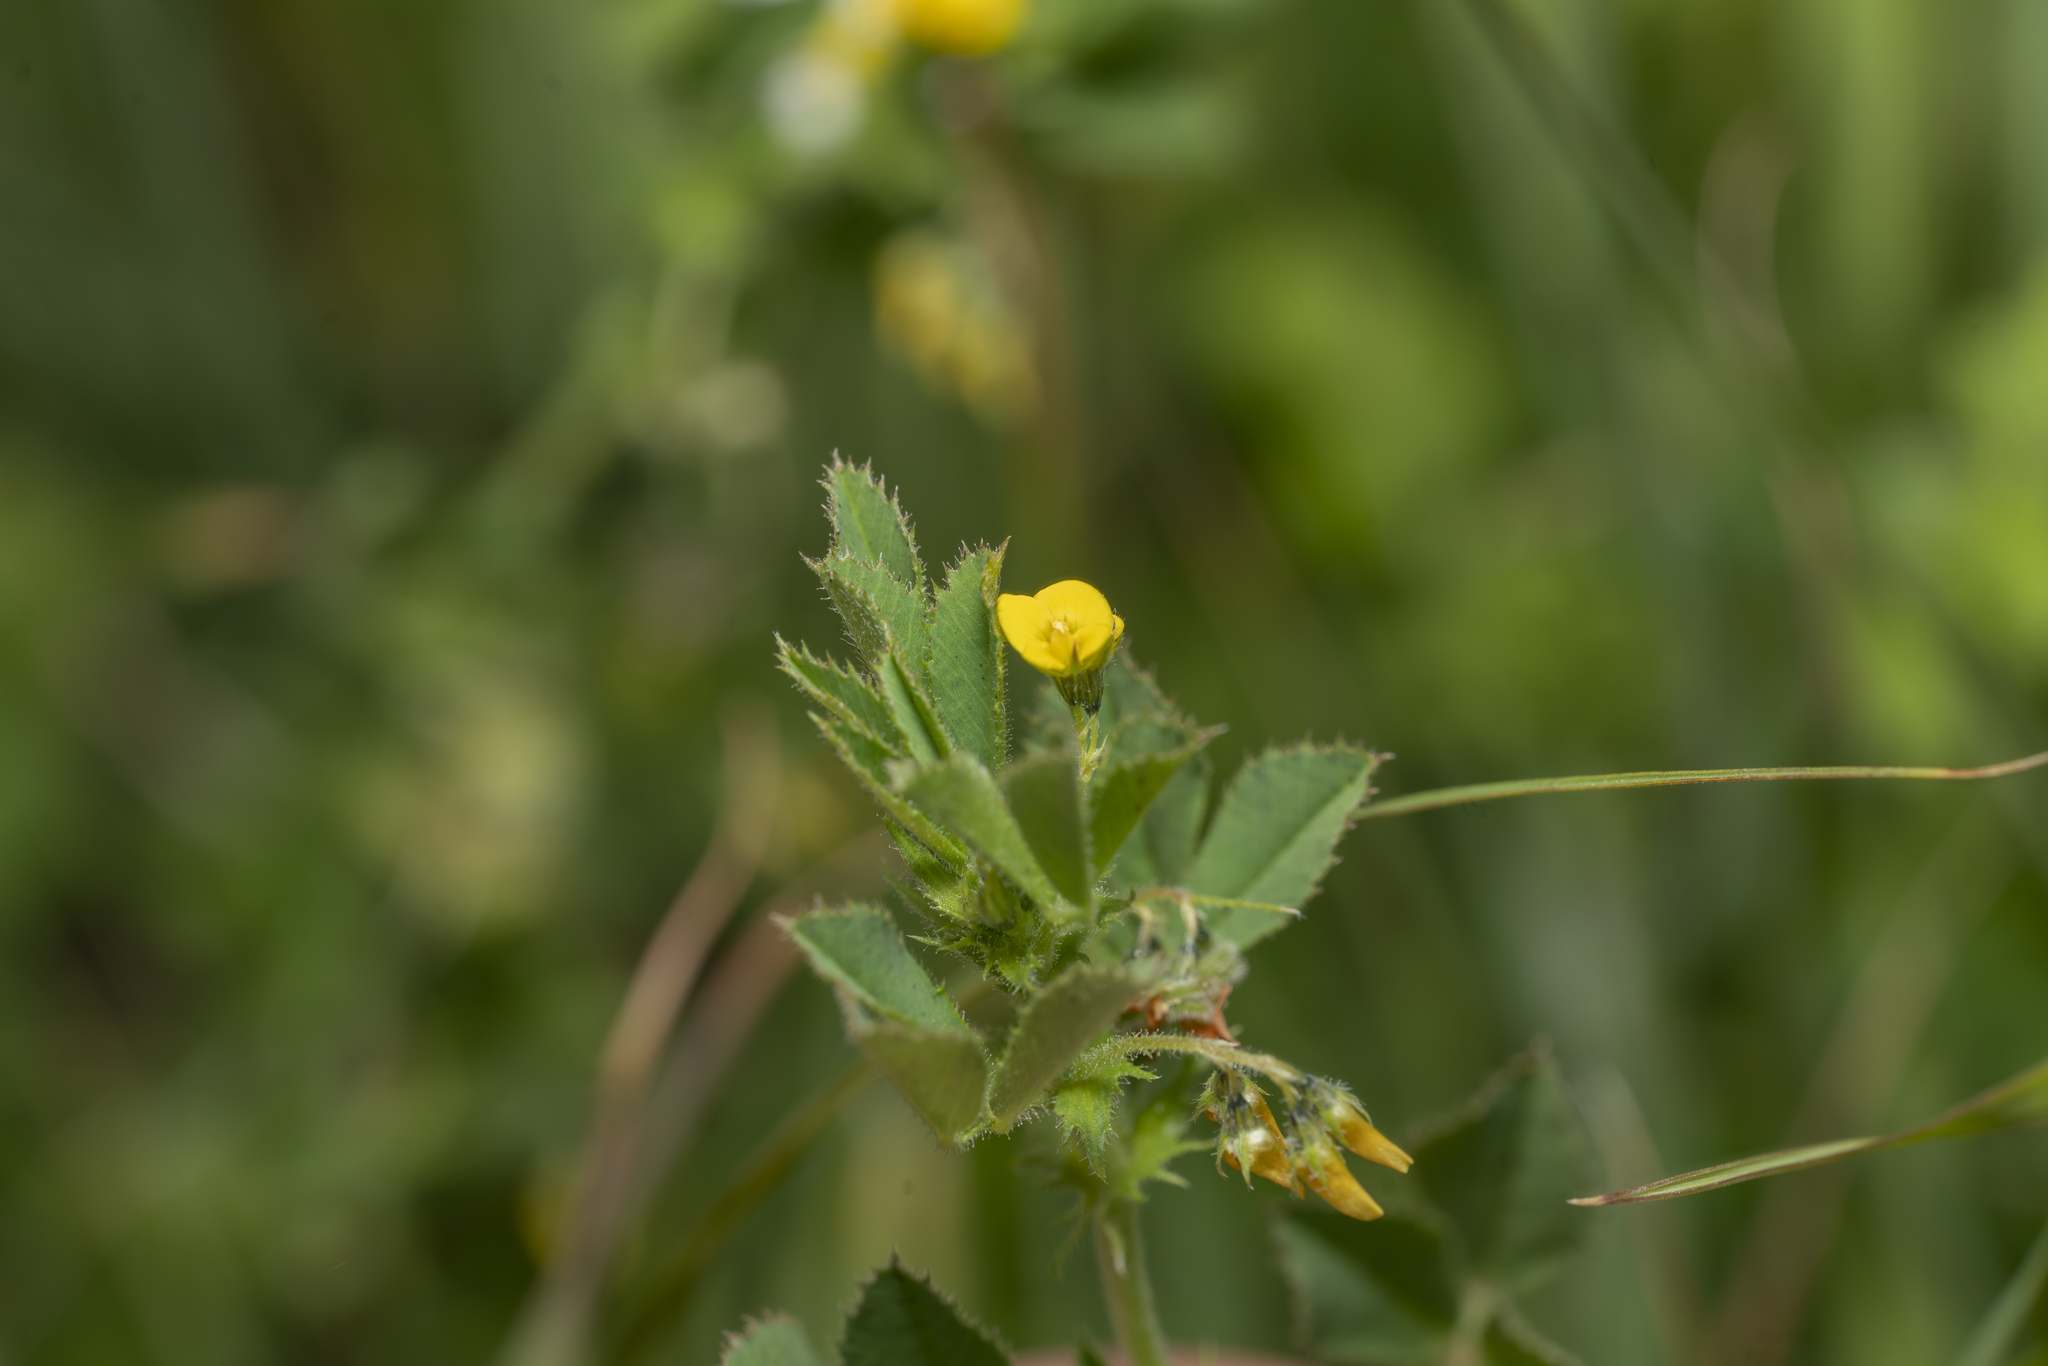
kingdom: Plantae
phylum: Tracheophyta
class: Magnoliopsida
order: Fabales
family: Fabaceae
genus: Medicago
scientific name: Medicago rugosa
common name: Gama medic
